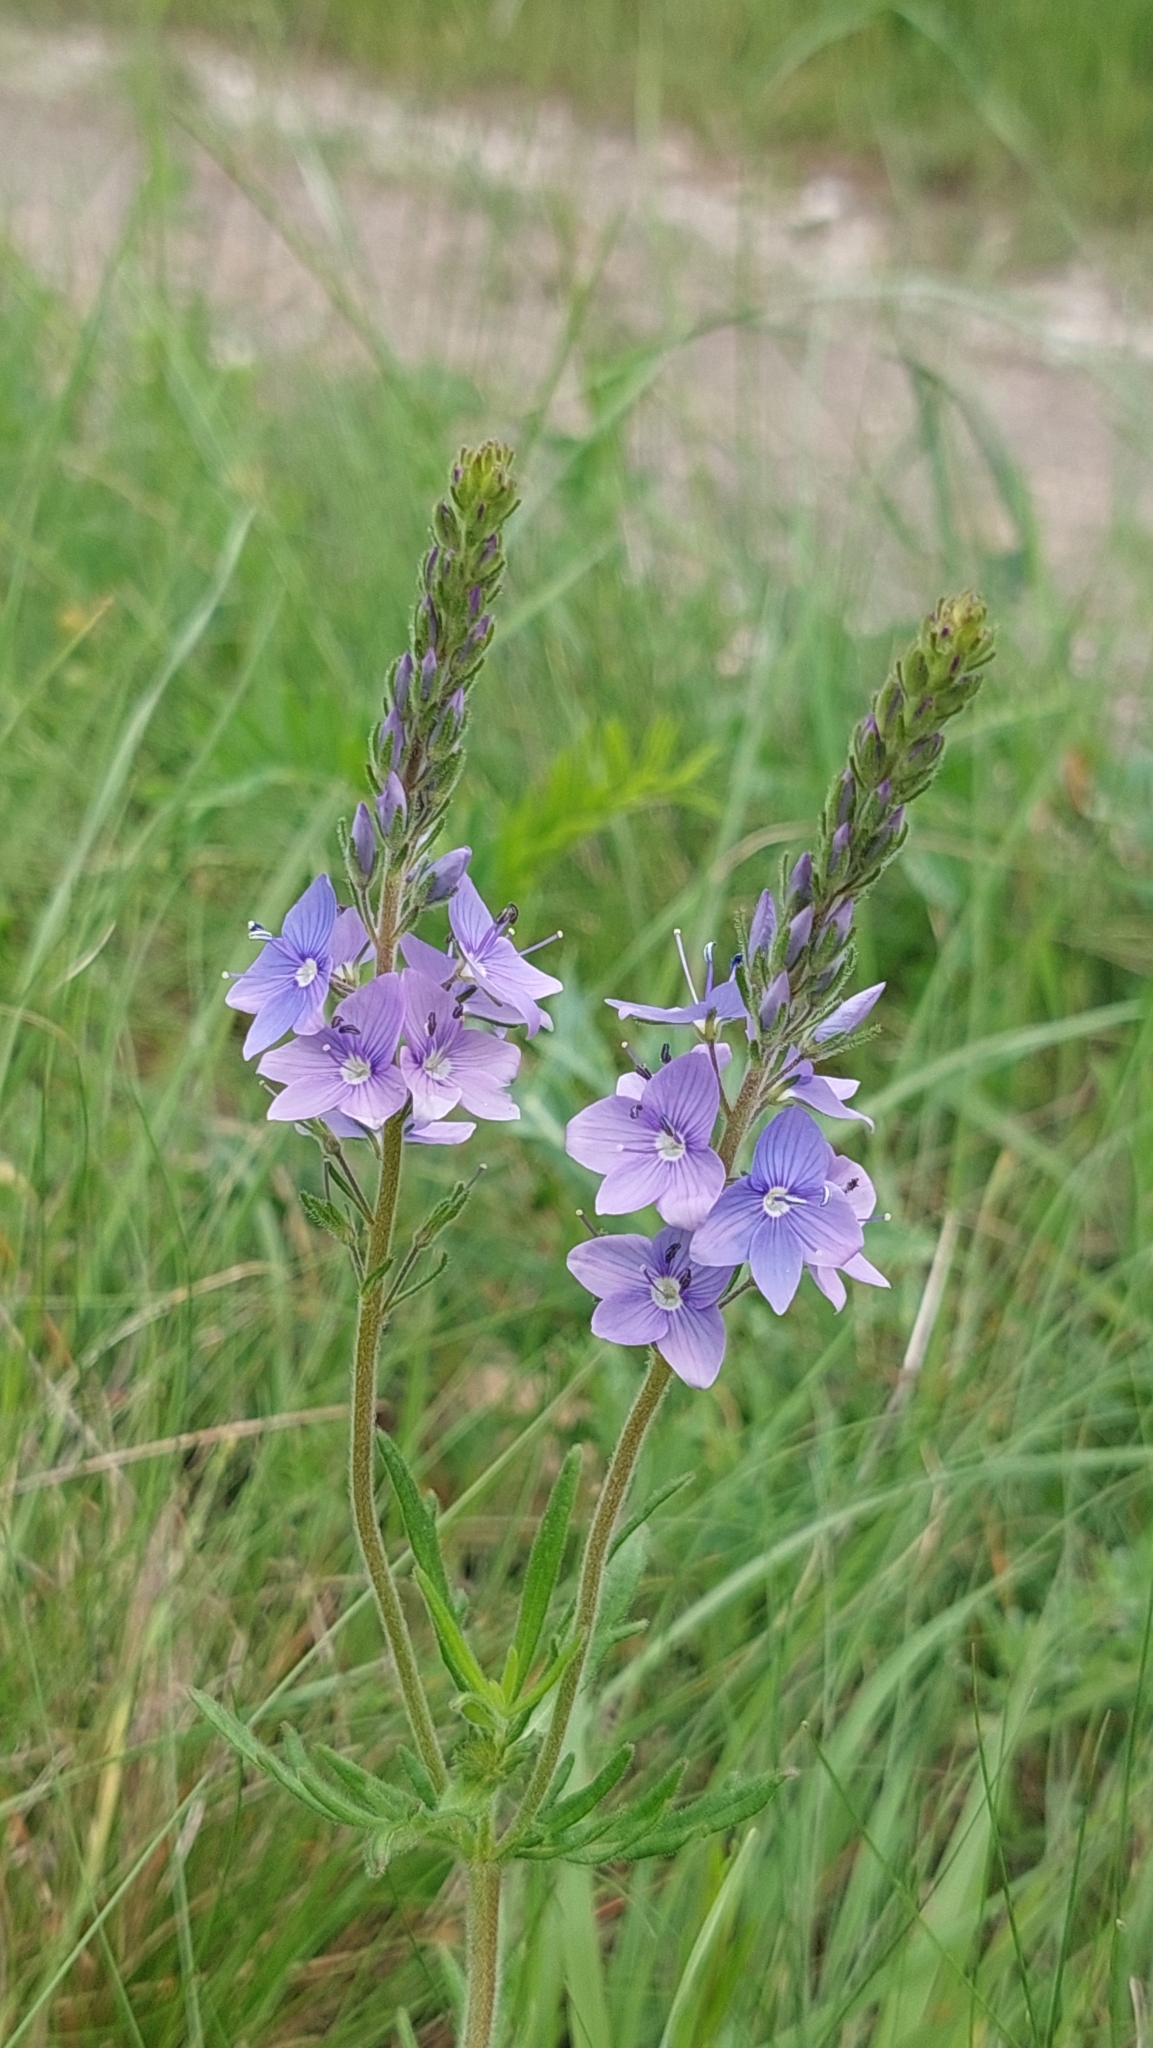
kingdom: Plantae
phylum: Tracheophyta
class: Magnoliopsida
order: Lamiales
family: Plantaginaceae
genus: Veronica
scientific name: Veronica austriaca
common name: Large speedwell
